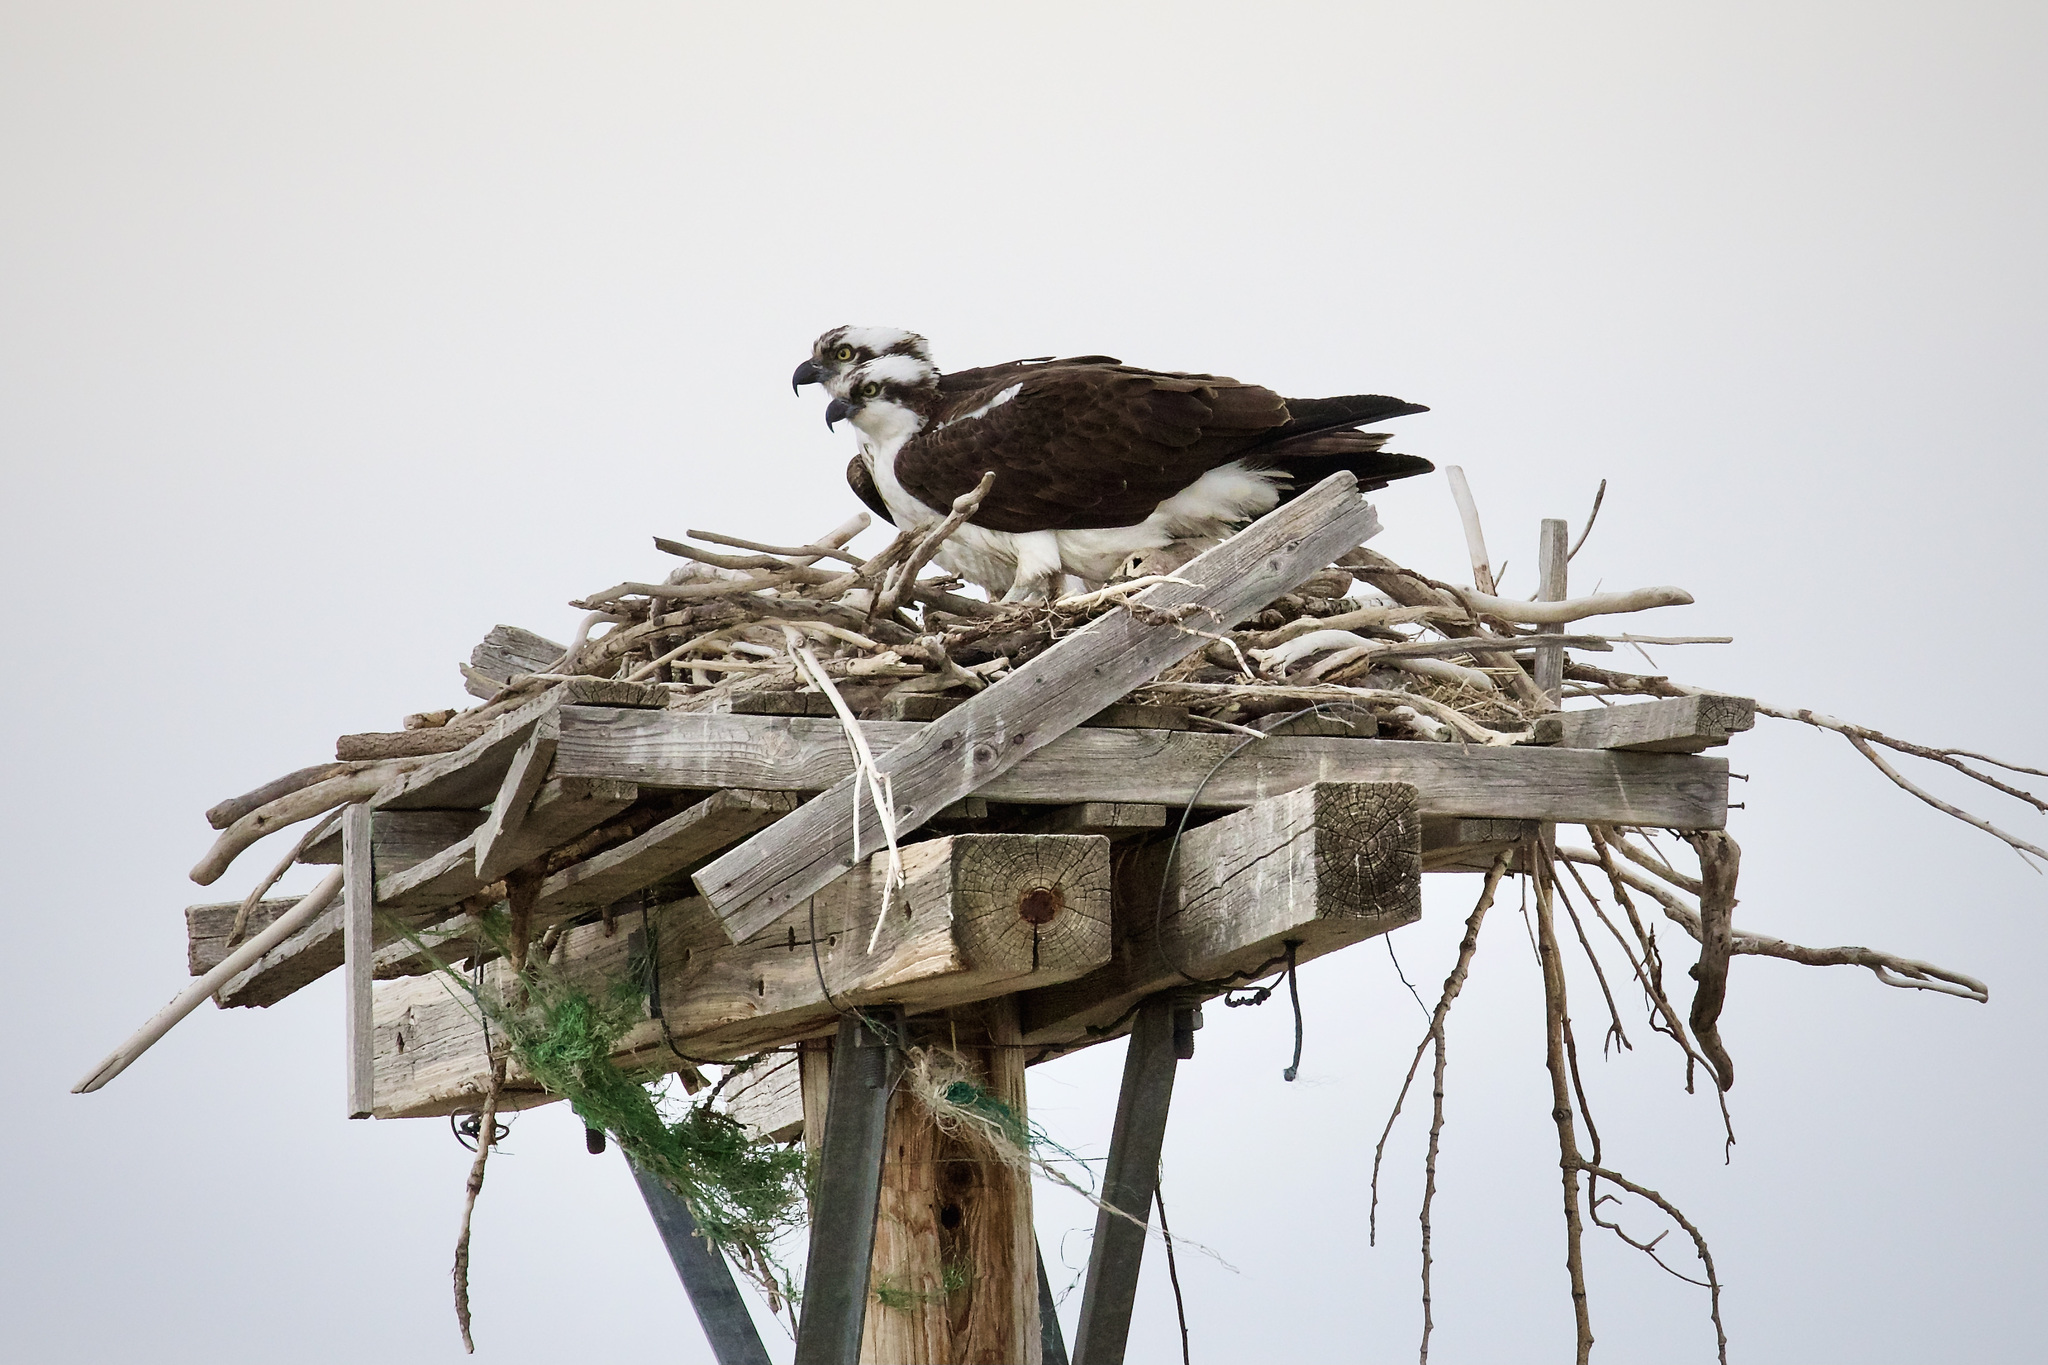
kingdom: Animalia
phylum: Chordata
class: Aves
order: Accipitriformes
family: Pandionidae
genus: Pandion
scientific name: Pandion haliaetus
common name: Osprey
